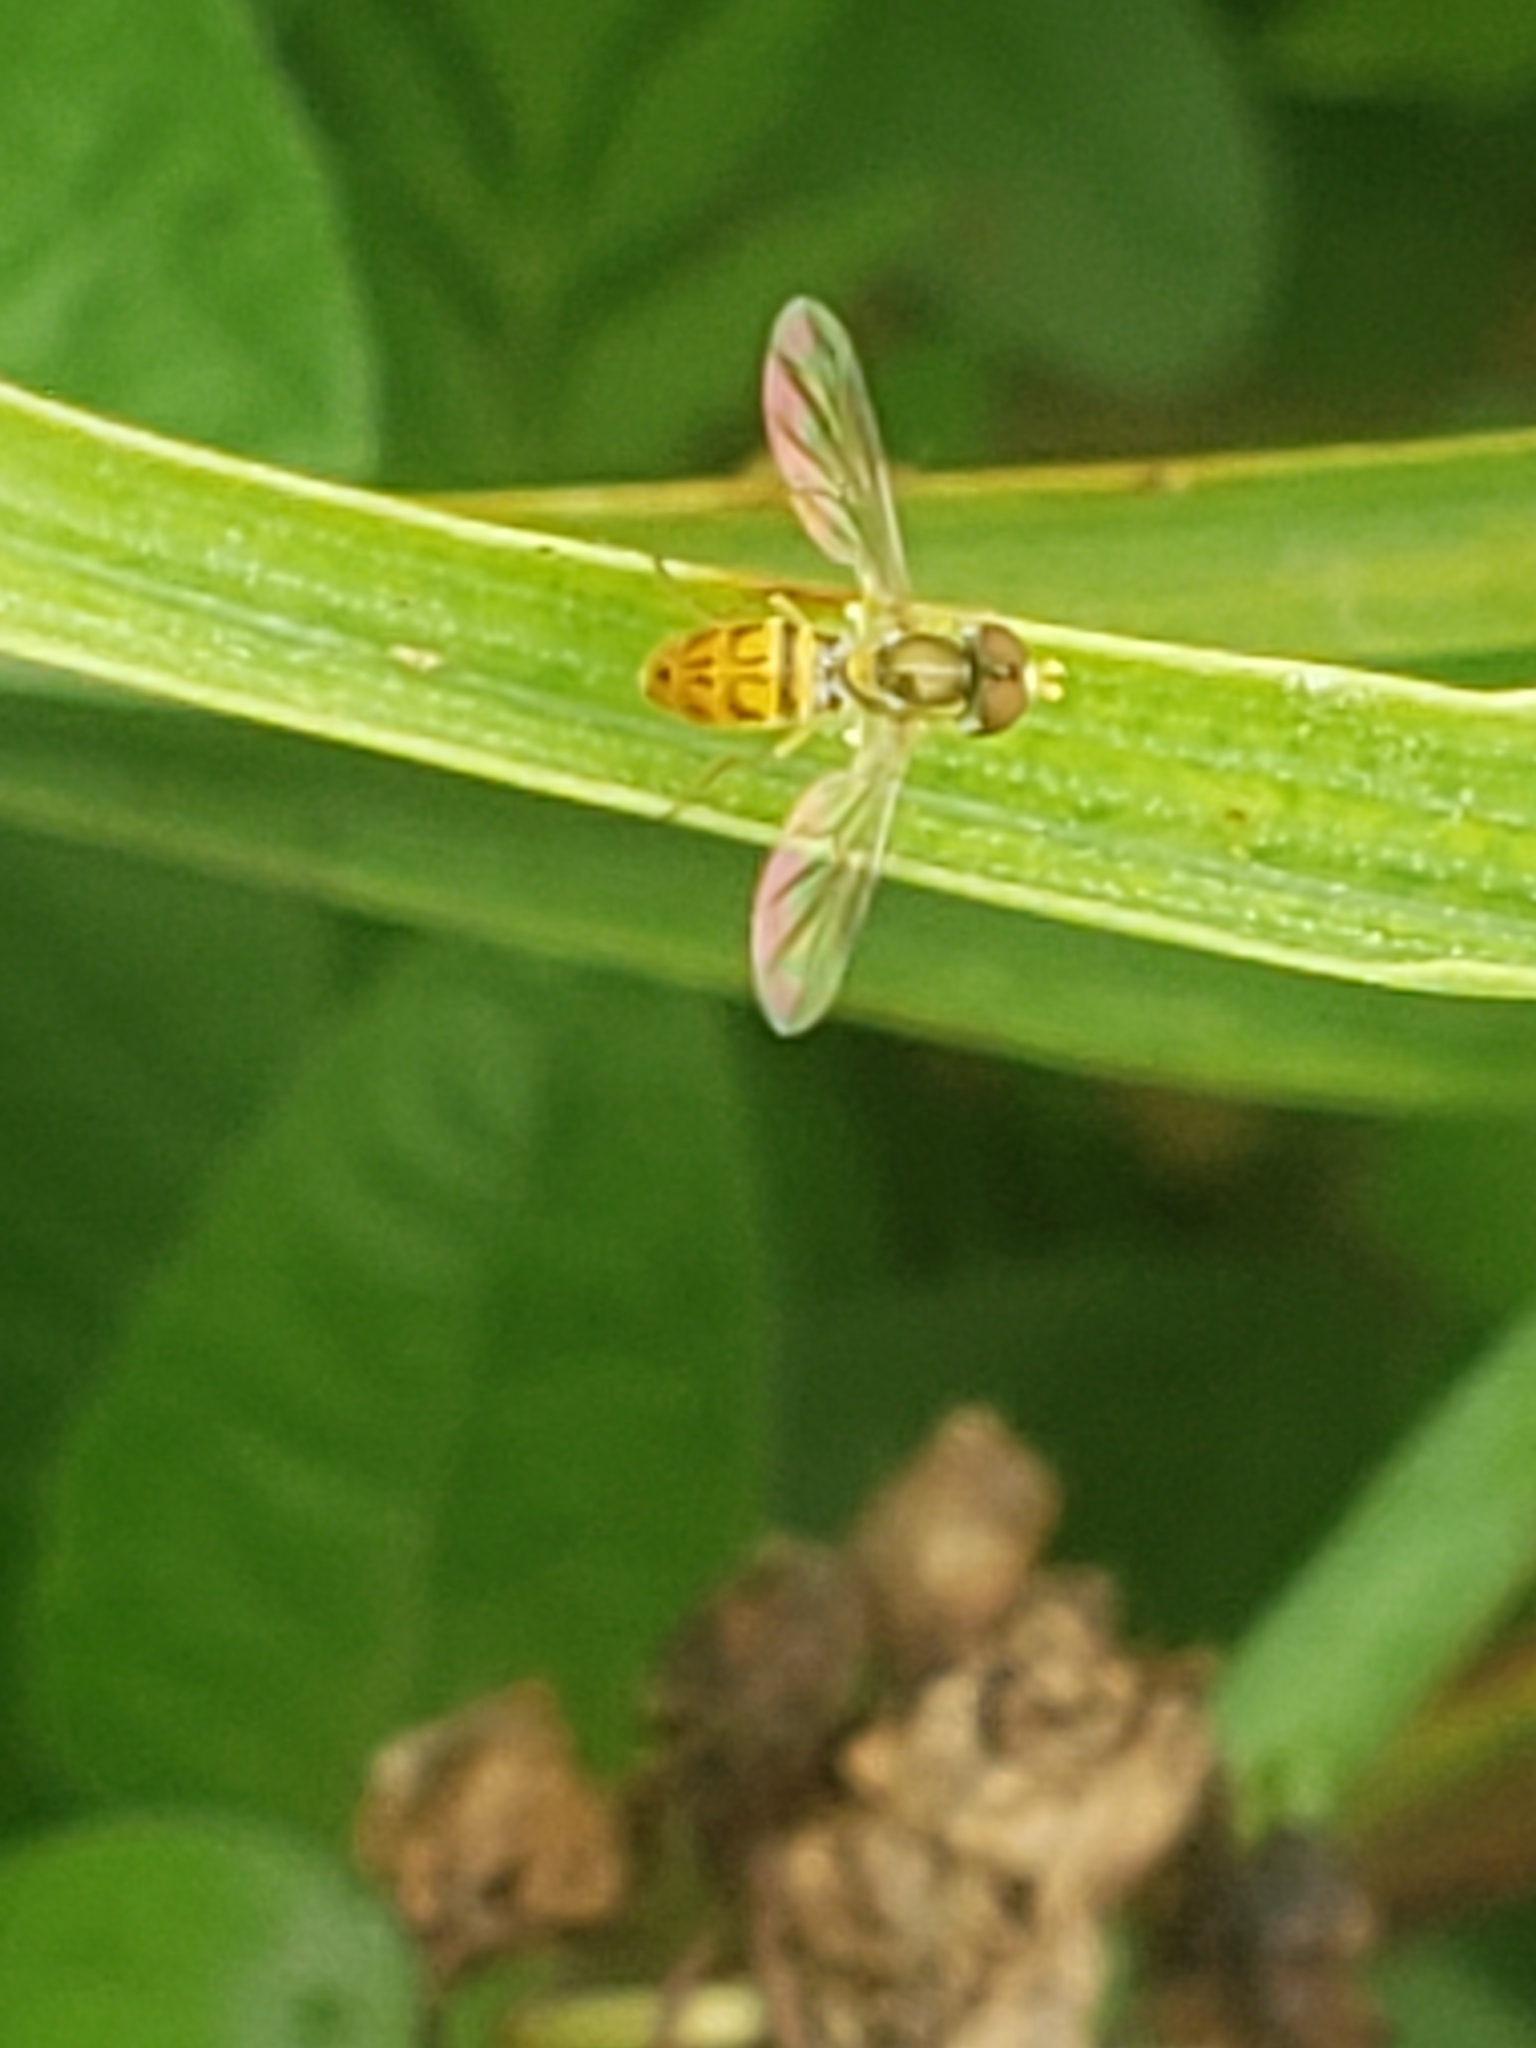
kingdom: Animalia
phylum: Arthropoda
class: Insecta
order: Diptera
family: Syrphidae
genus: Toxomerus
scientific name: Toxomerus marginatus
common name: Syrphid fly
